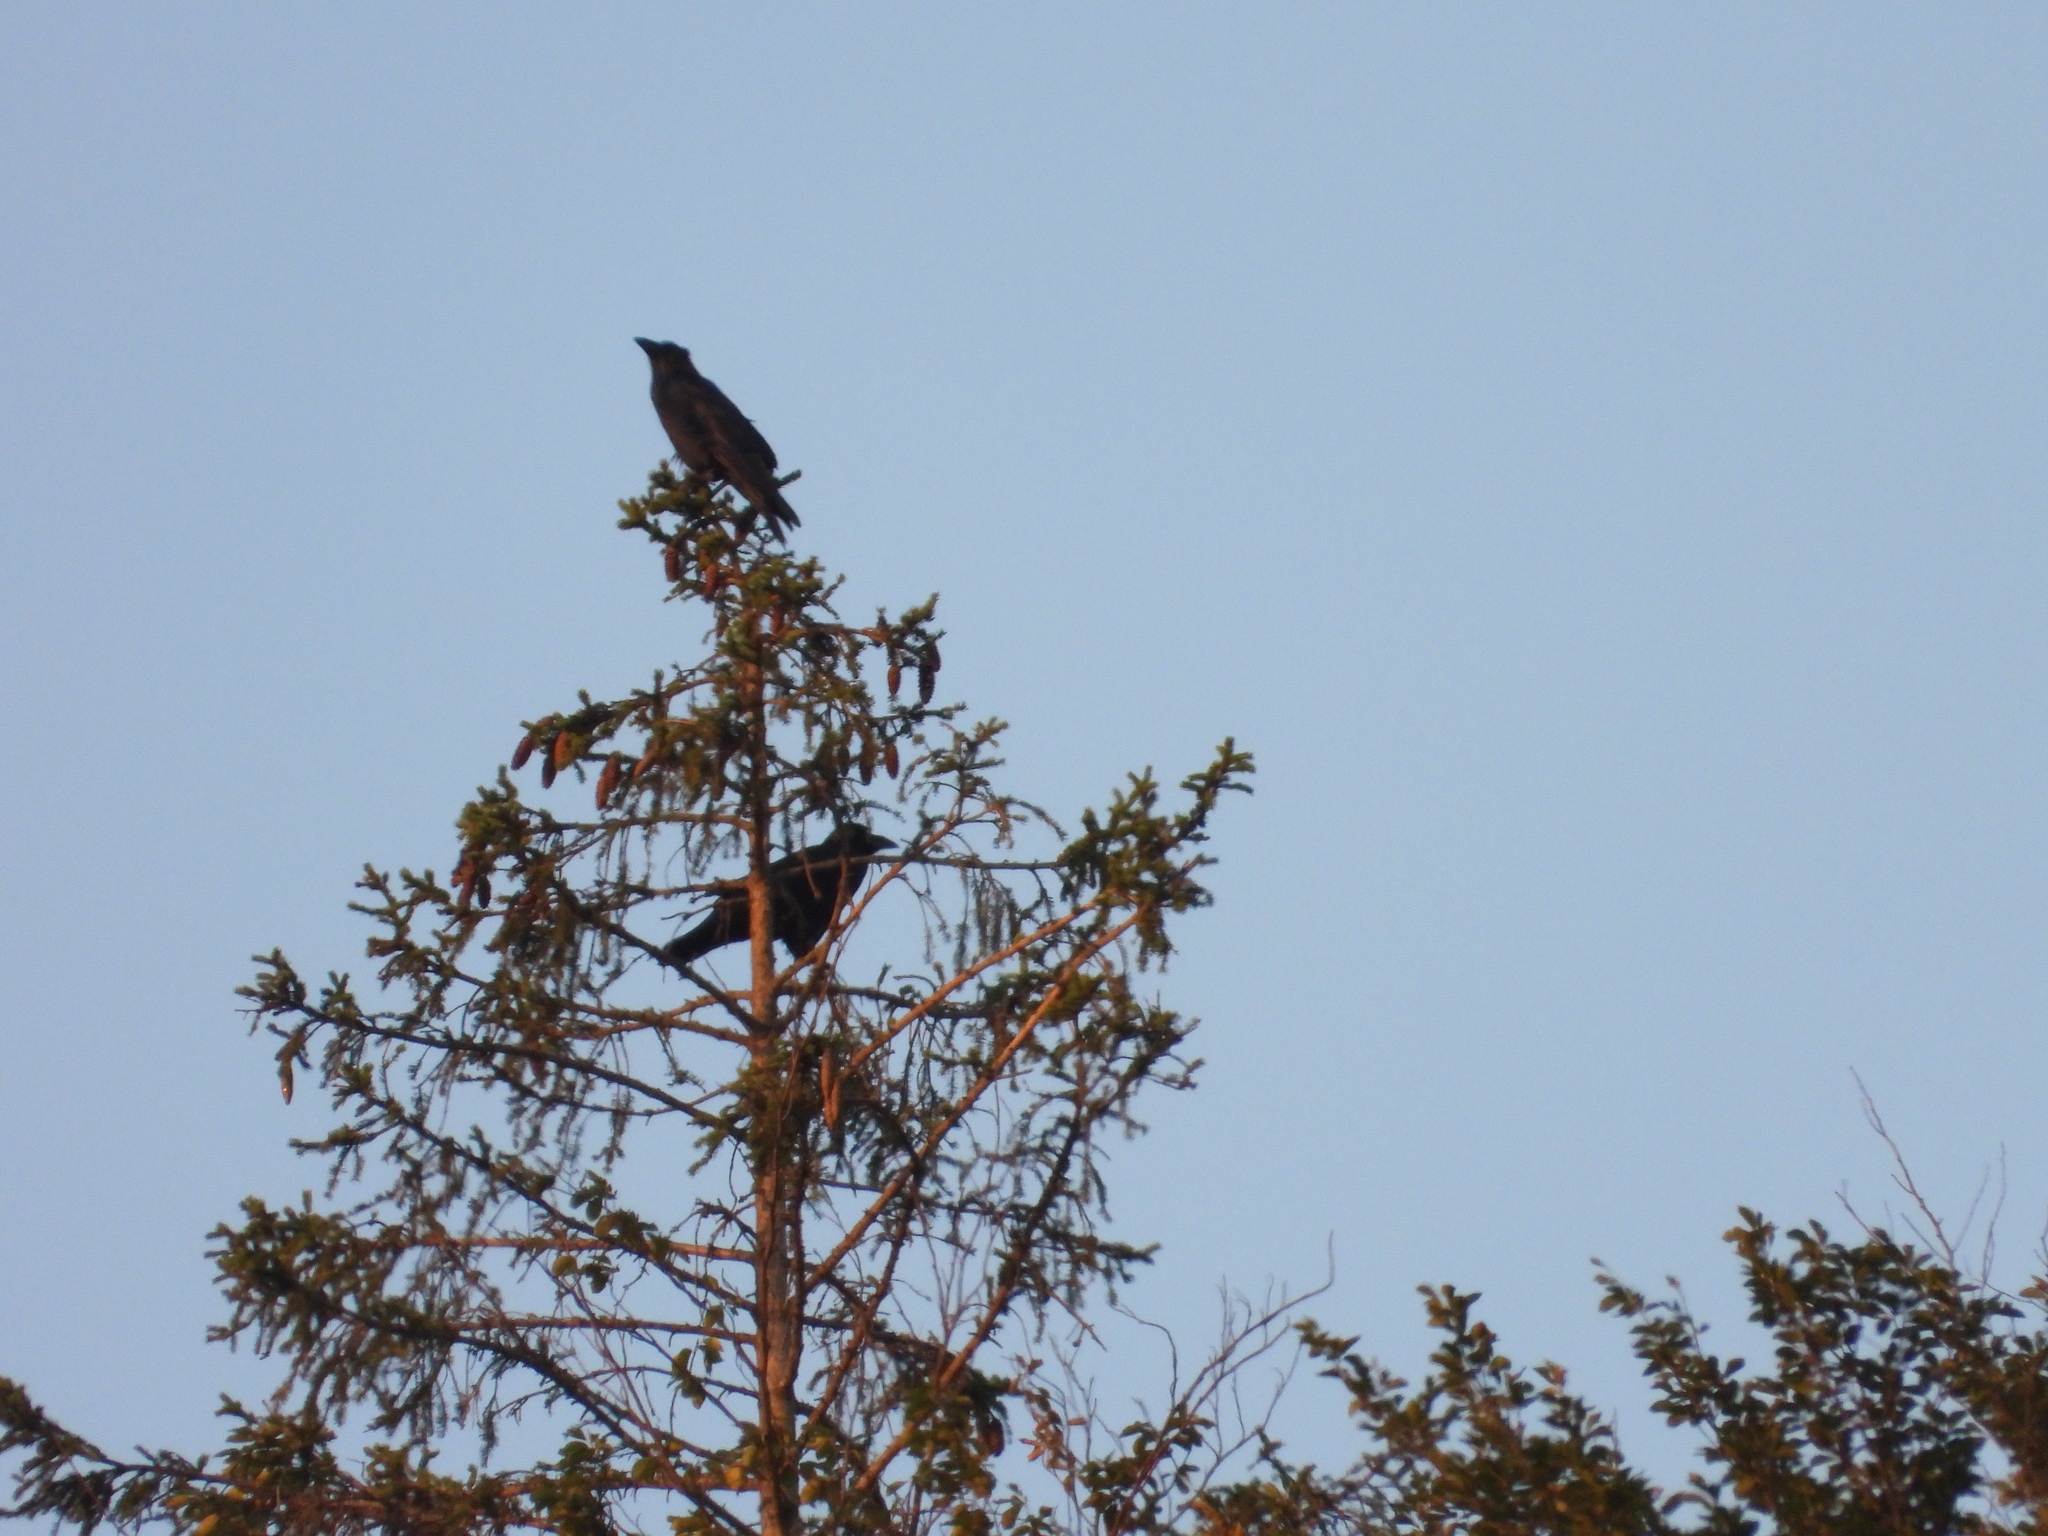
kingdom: Animalia
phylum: Chordata
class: Aves
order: Passeriformes
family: Corvidae
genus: Corvus
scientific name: Corvus corax
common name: Common raven
